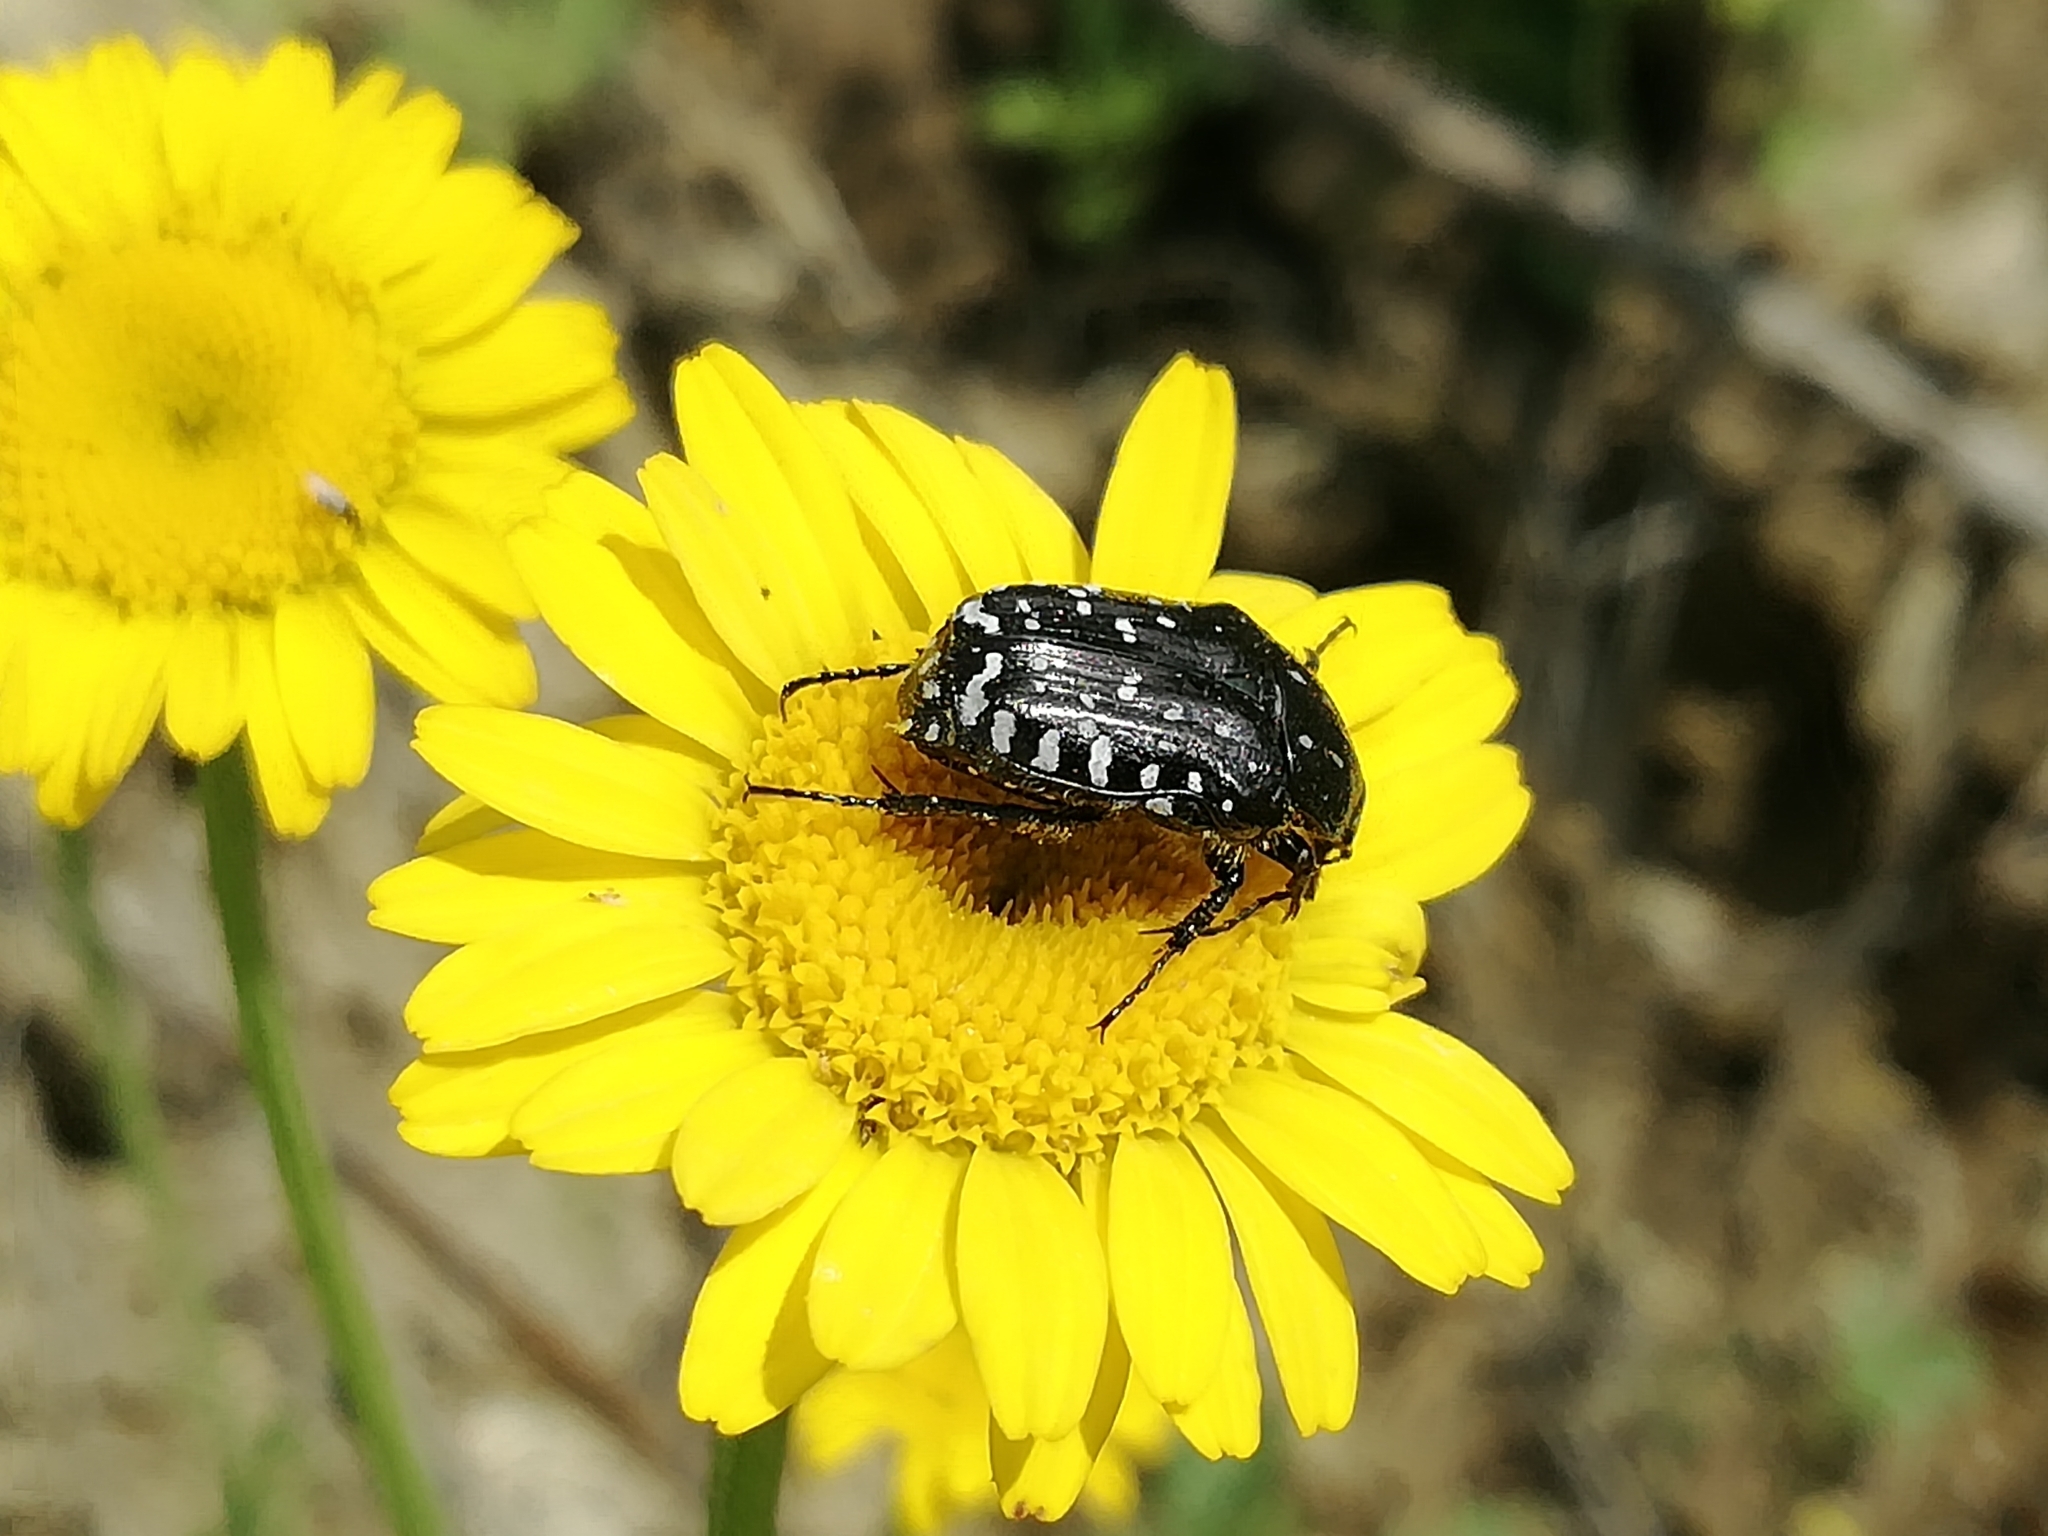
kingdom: Animalia
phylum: Arthropoda
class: Insecta
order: Coleoptera
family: Scarabaeidae
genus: Oxythyrea
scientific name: Oxythyrea funesta
